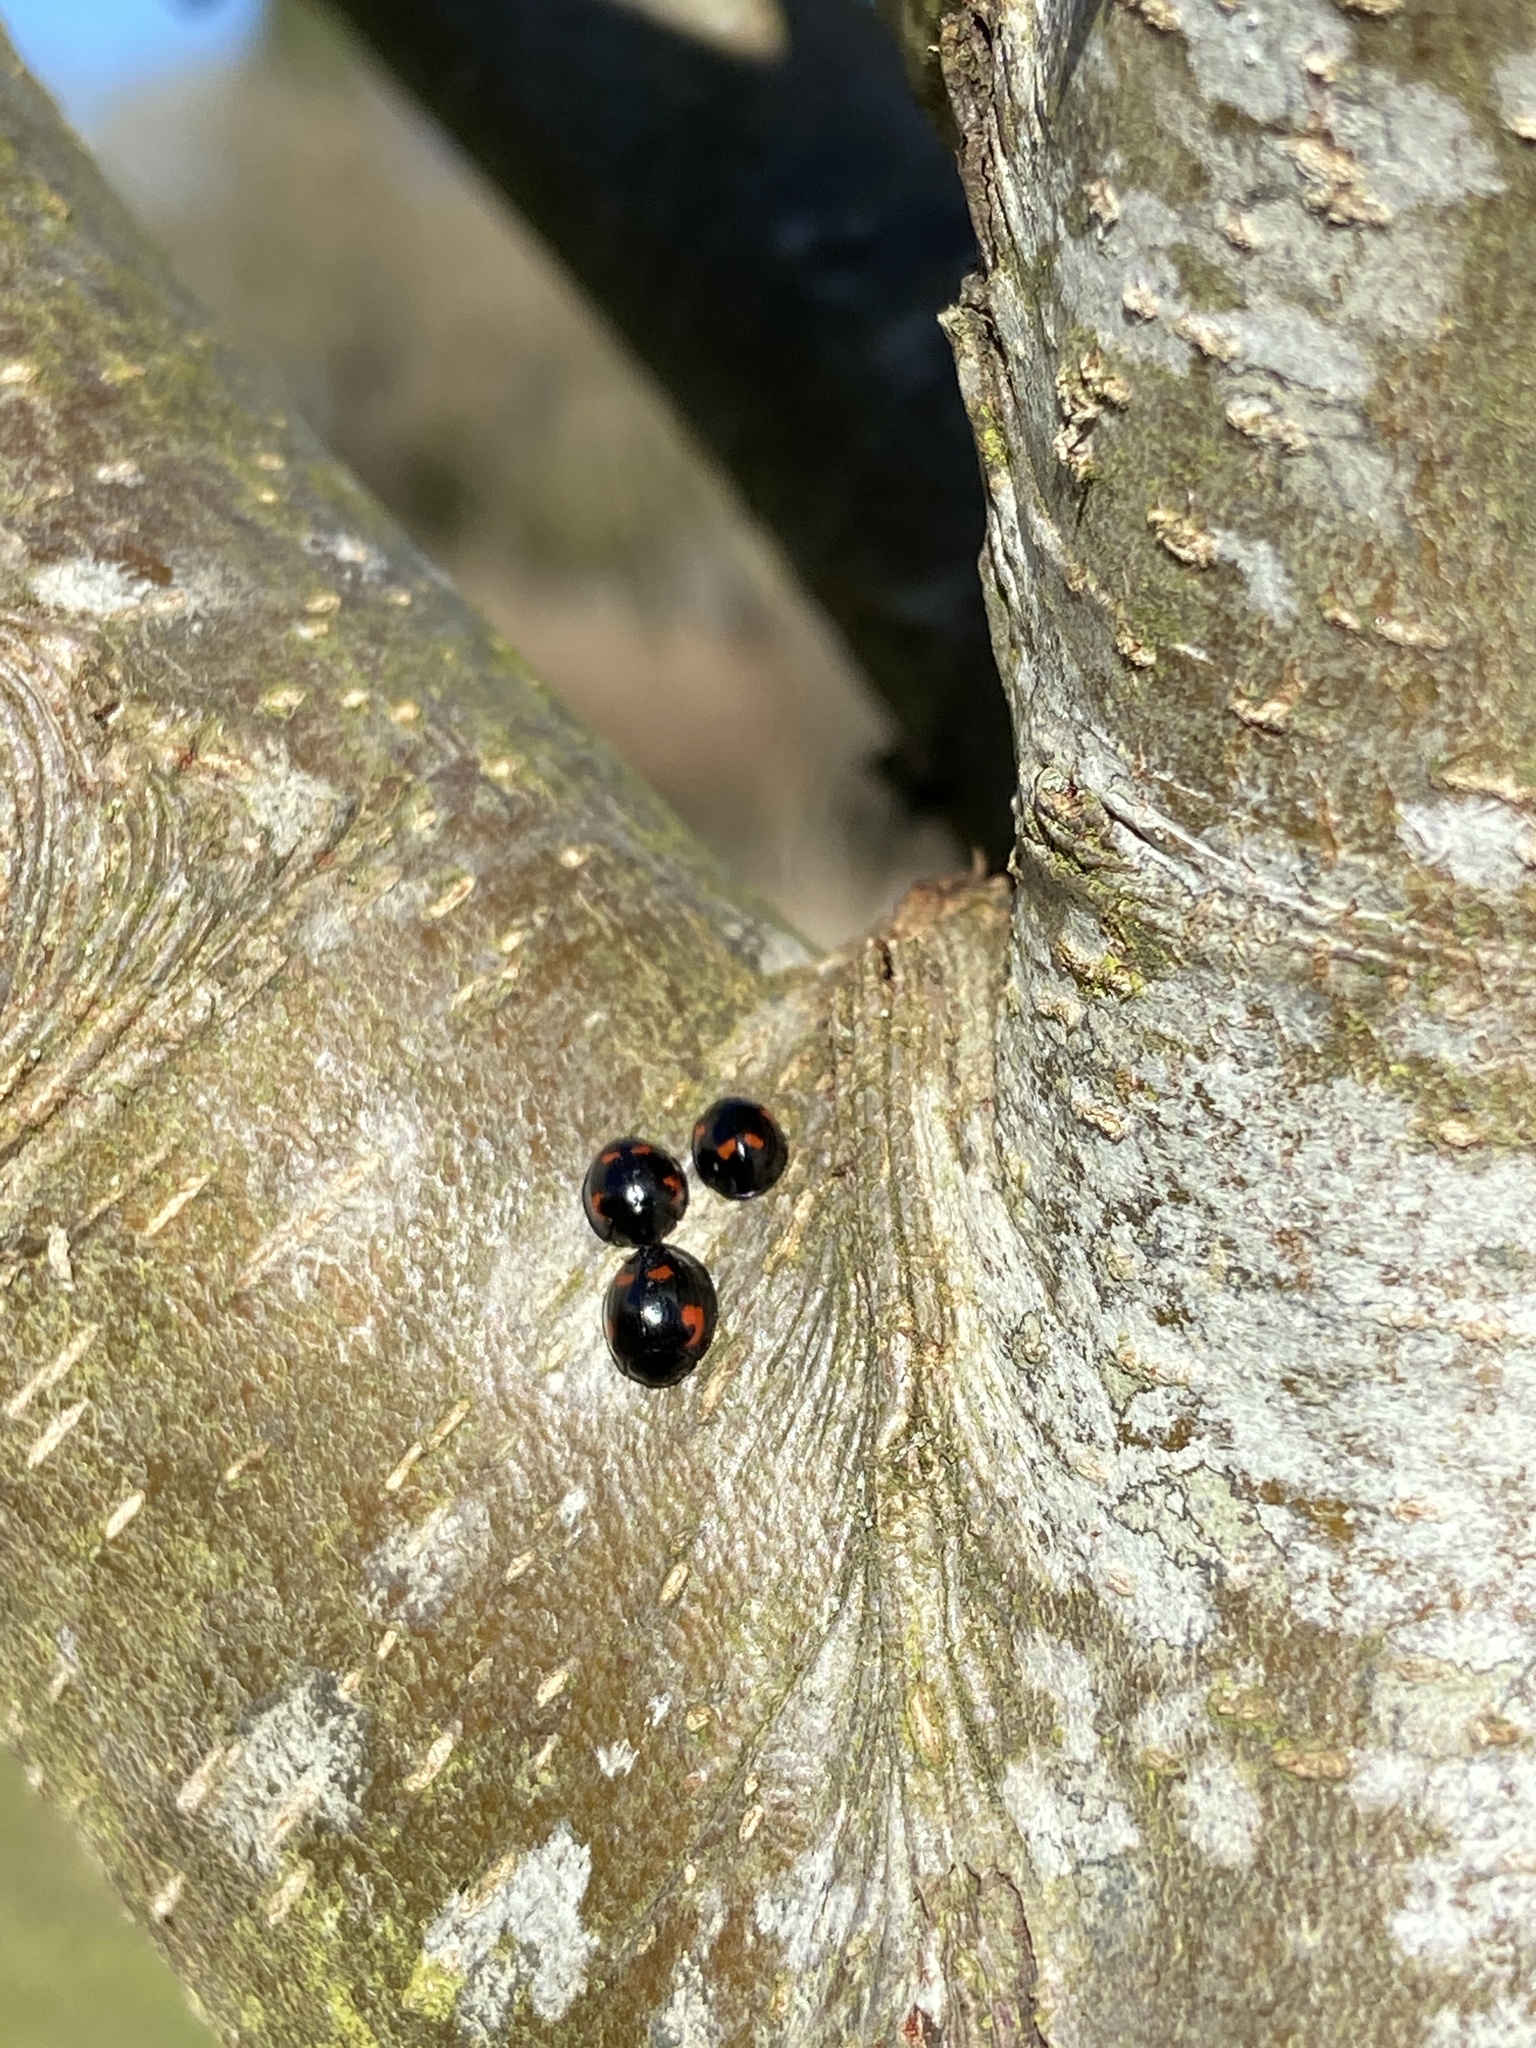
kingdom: Animalia
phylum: Arthropoda
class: Insecta
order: Coleoptera
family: Coccinellidae
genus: Brumus
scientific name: Brumus quadripustulatus
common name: Ladybird beetle
